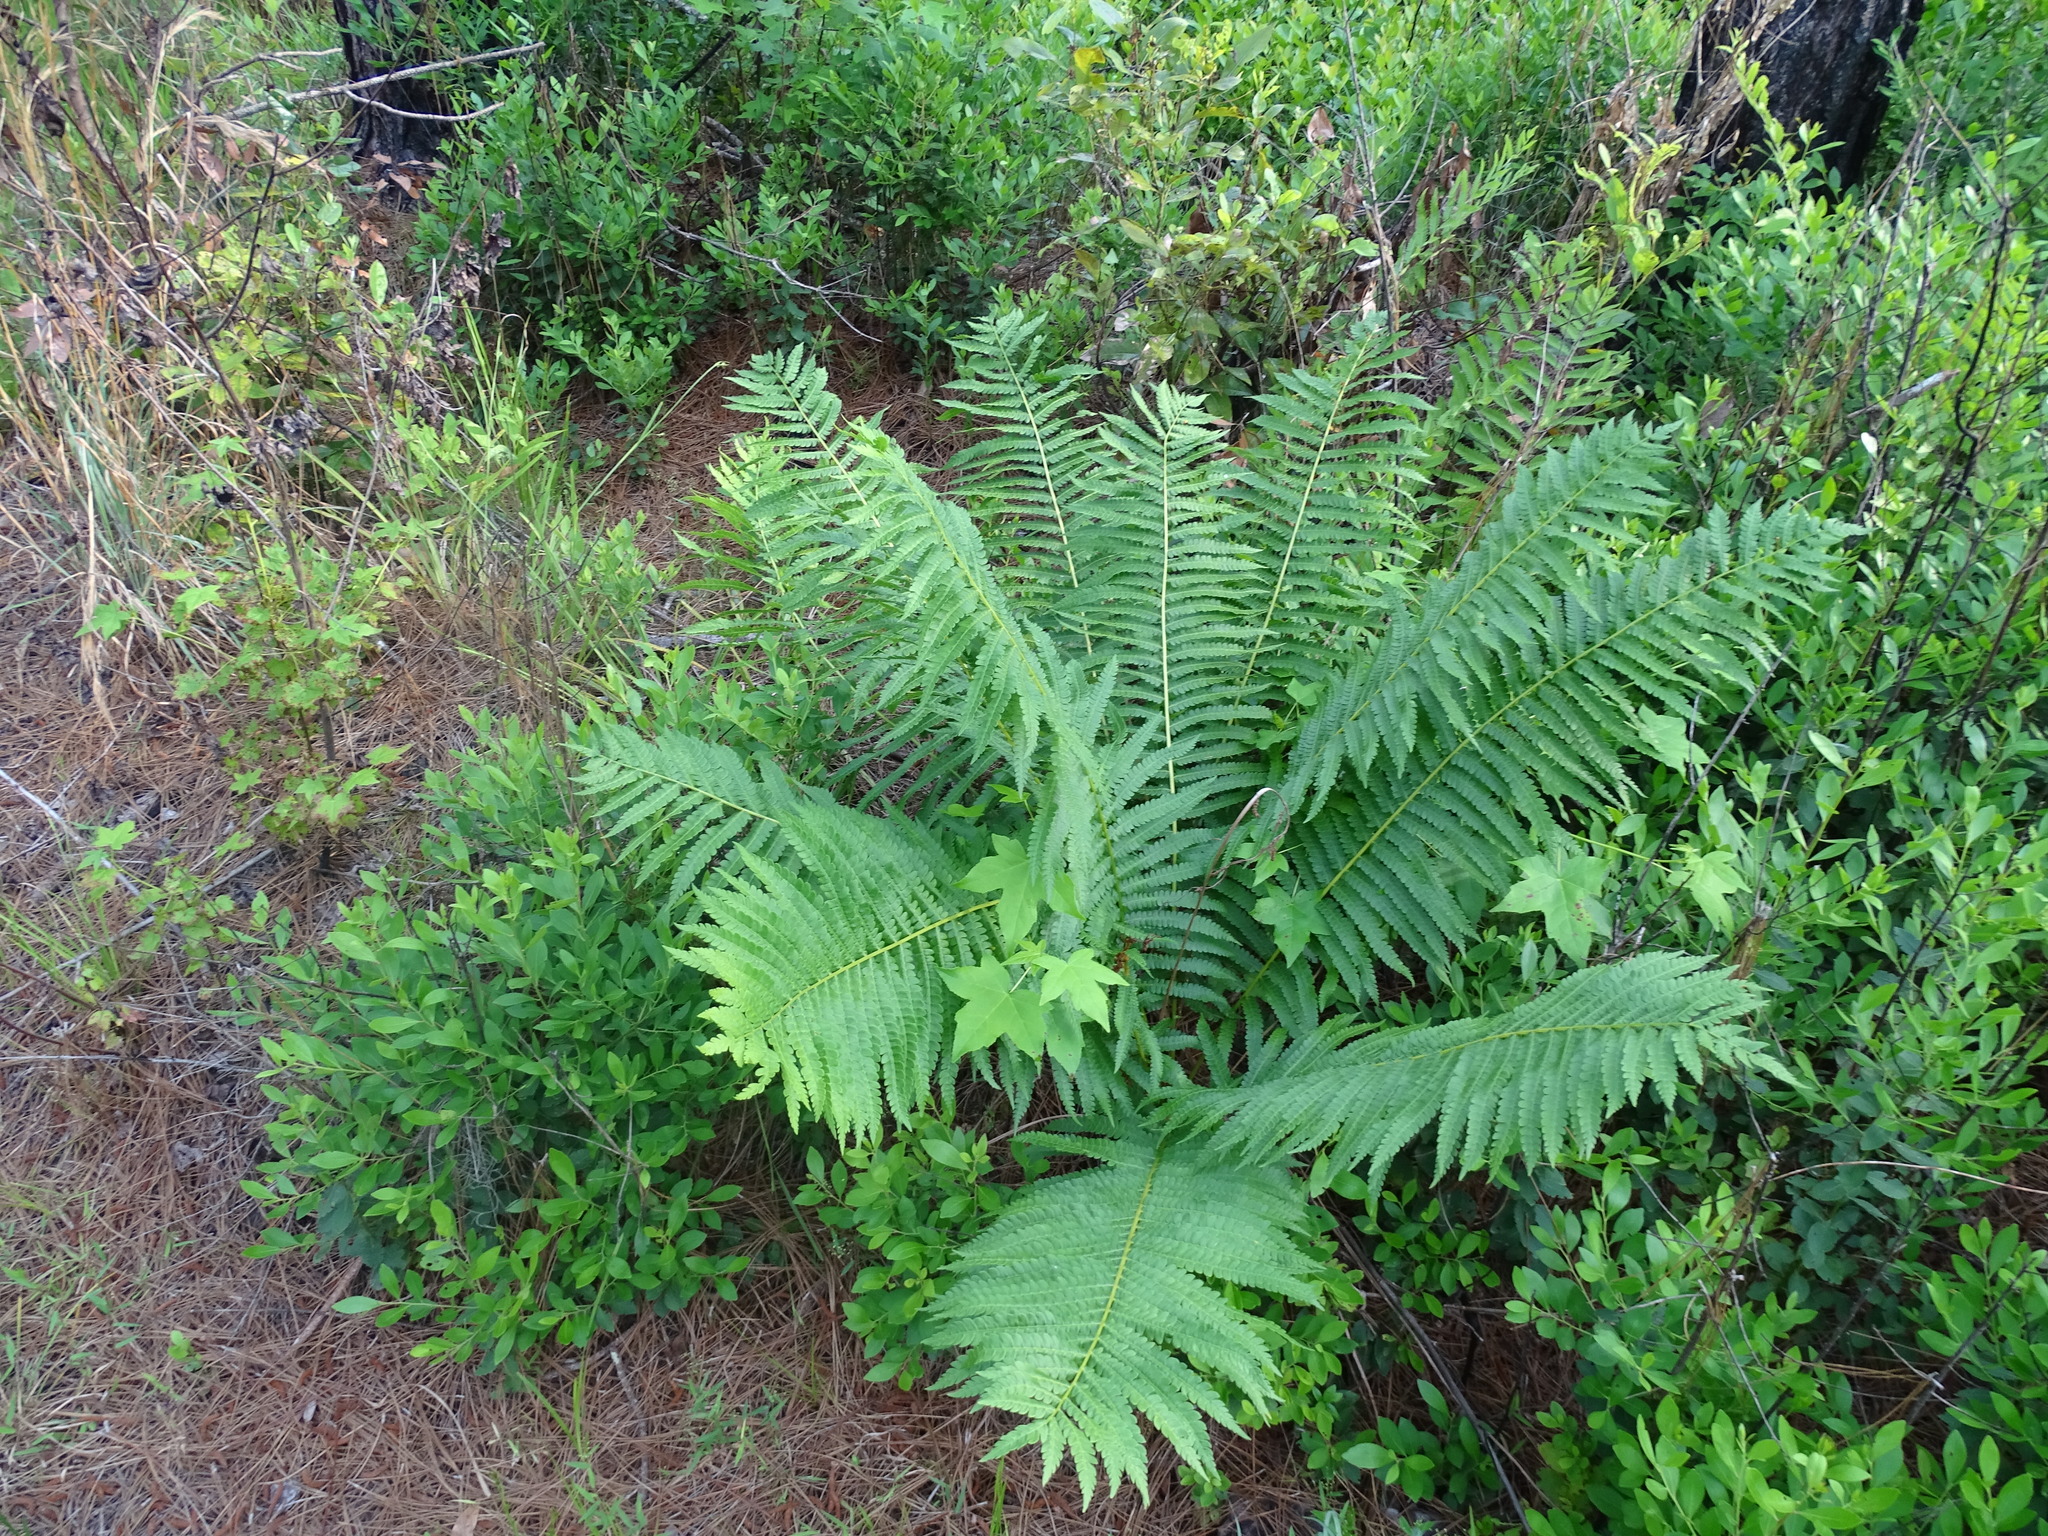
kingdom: Plantae
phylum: Tracheophyta
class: Polypodiopsida
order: Osmundales
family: Osmundaceae
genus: Osmundastrum
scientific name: Osmundastrum cinnamomeum
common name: Cinnamon fern
